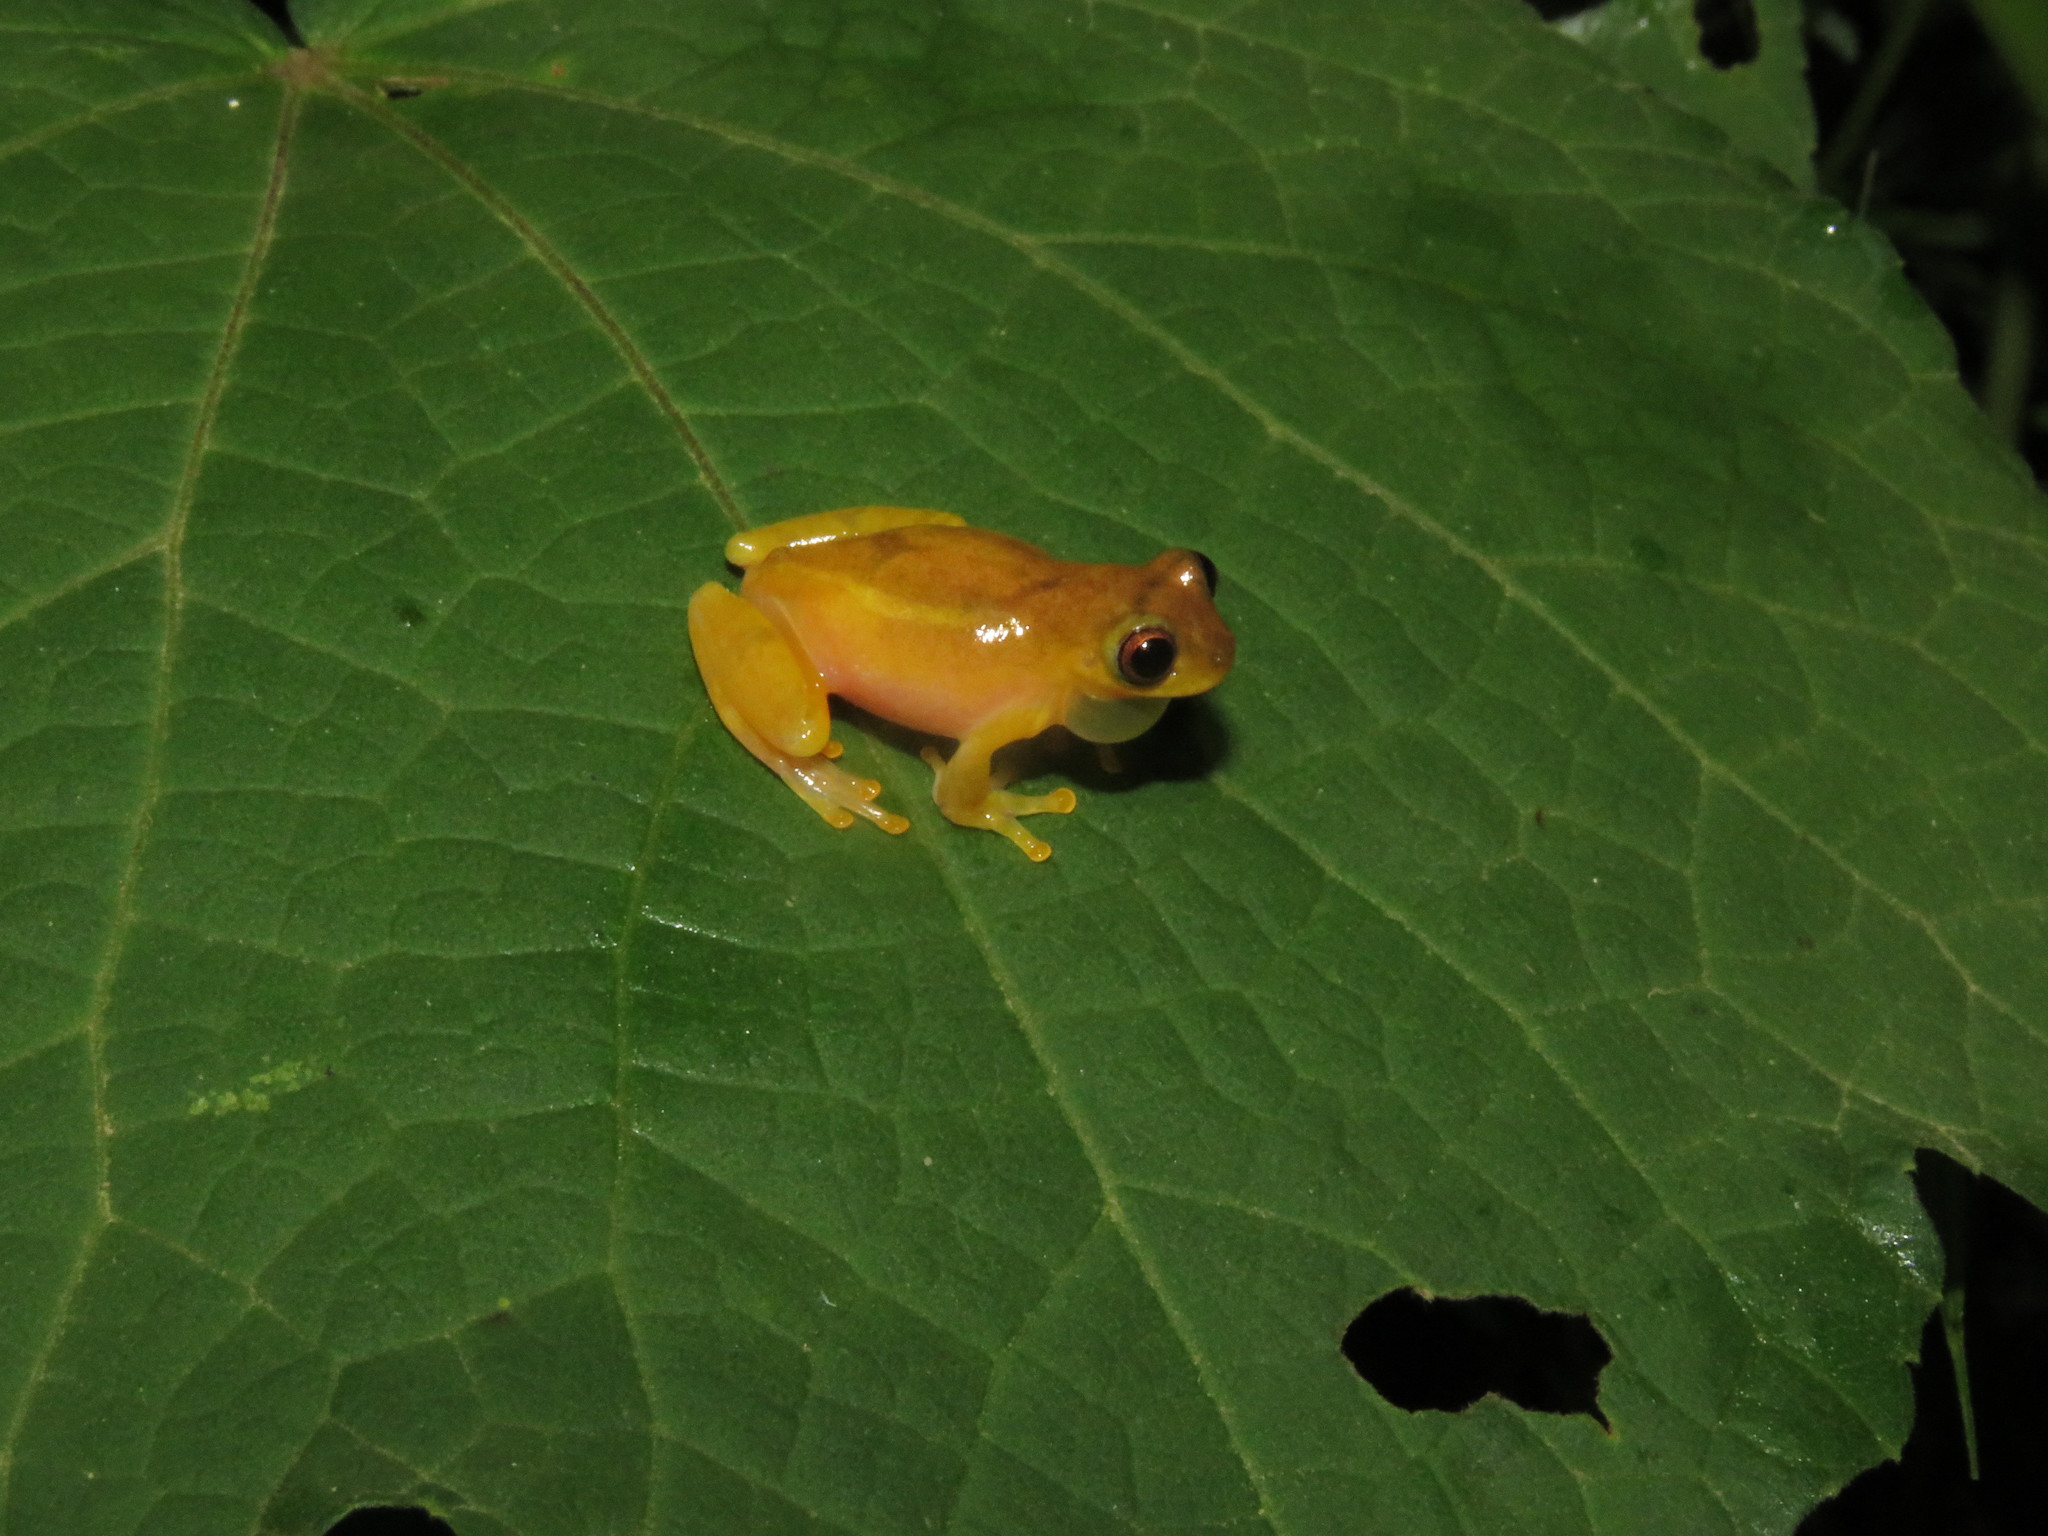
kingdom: Animalia
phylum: Chordata
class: Amphibia
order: Anura
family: Hylidae
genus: Dendropsophus
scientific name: Dendropsophus joannae
